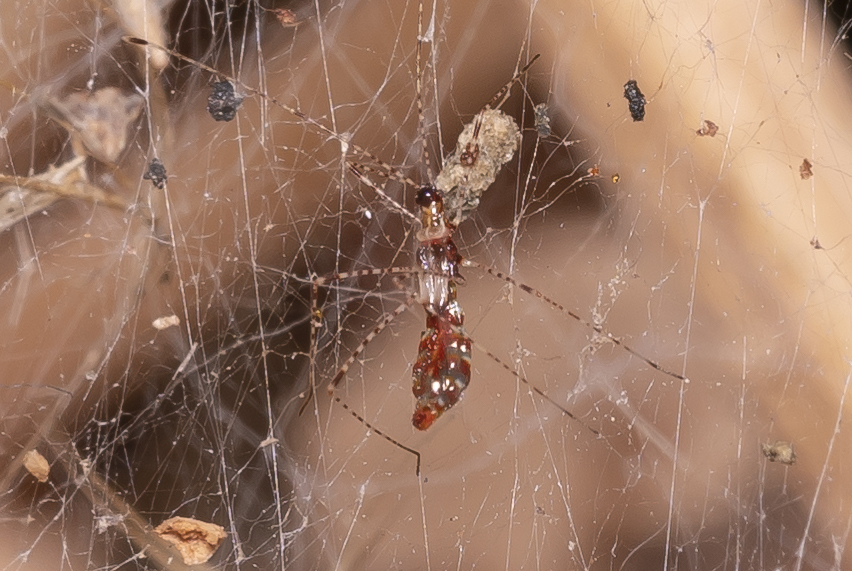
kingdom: Animalia
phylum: Arthropoda
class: Insecta
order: Hemiptera
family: Berytidae
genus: Metacanthus
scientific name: Metacanthus annulosus
